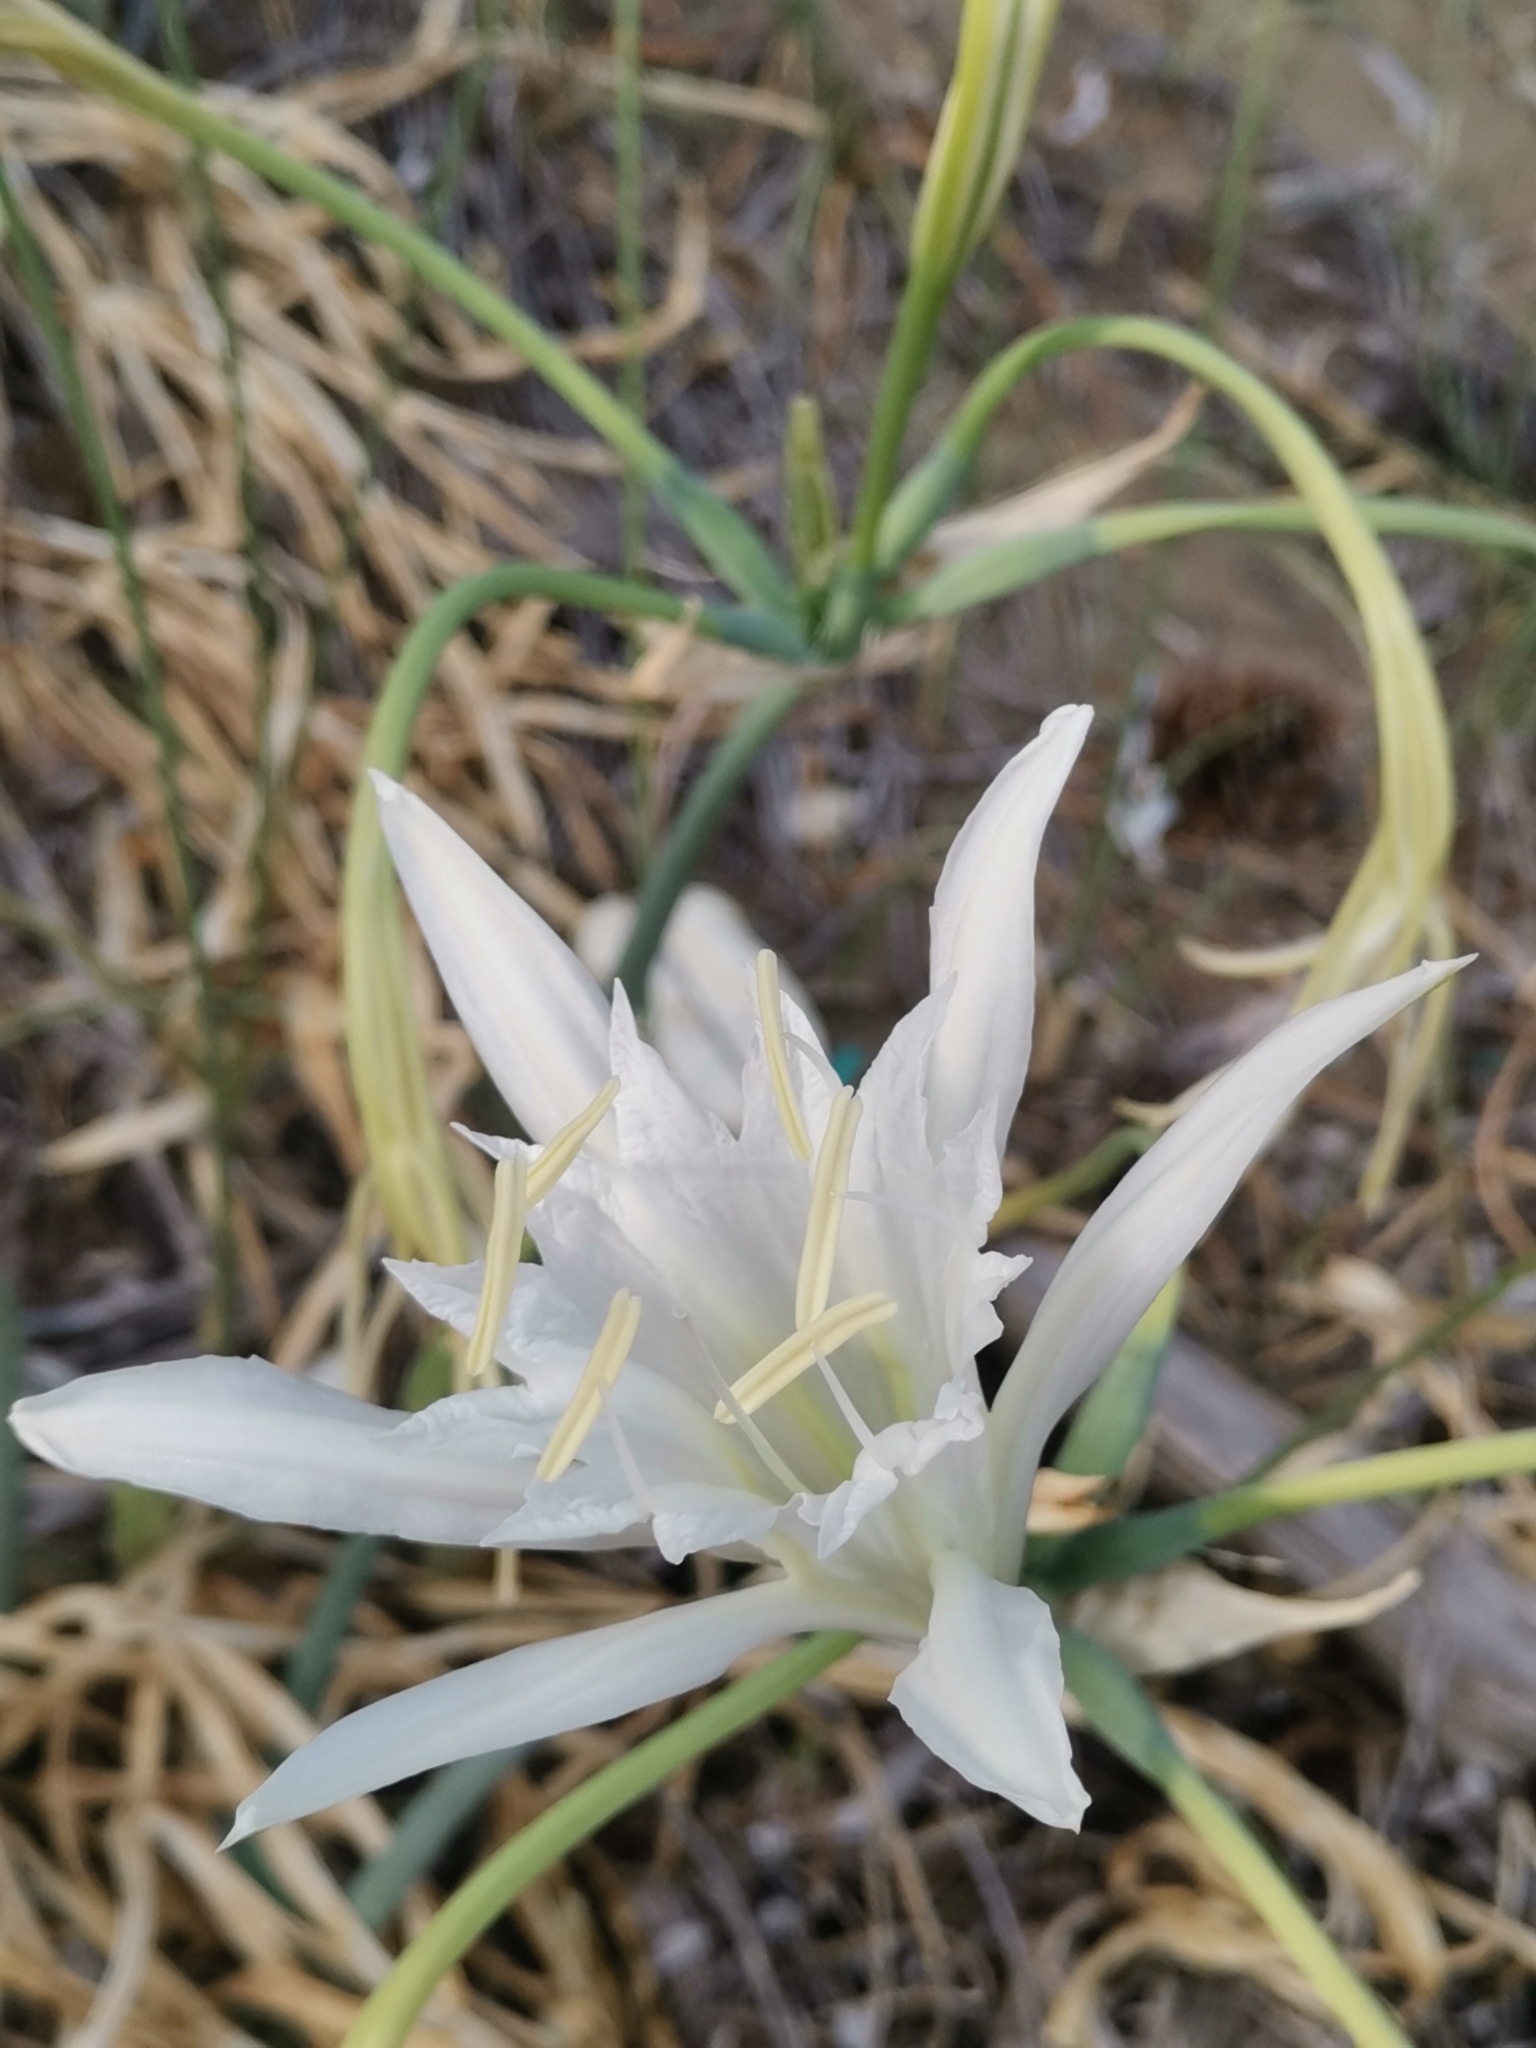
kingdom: Plantae
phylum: Tracheophyta
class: Liliopsida
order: Asparagales
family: Amaryllidaceae
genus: Pancratium
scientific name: Pancratium maritimum
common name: Sea-daffodil
